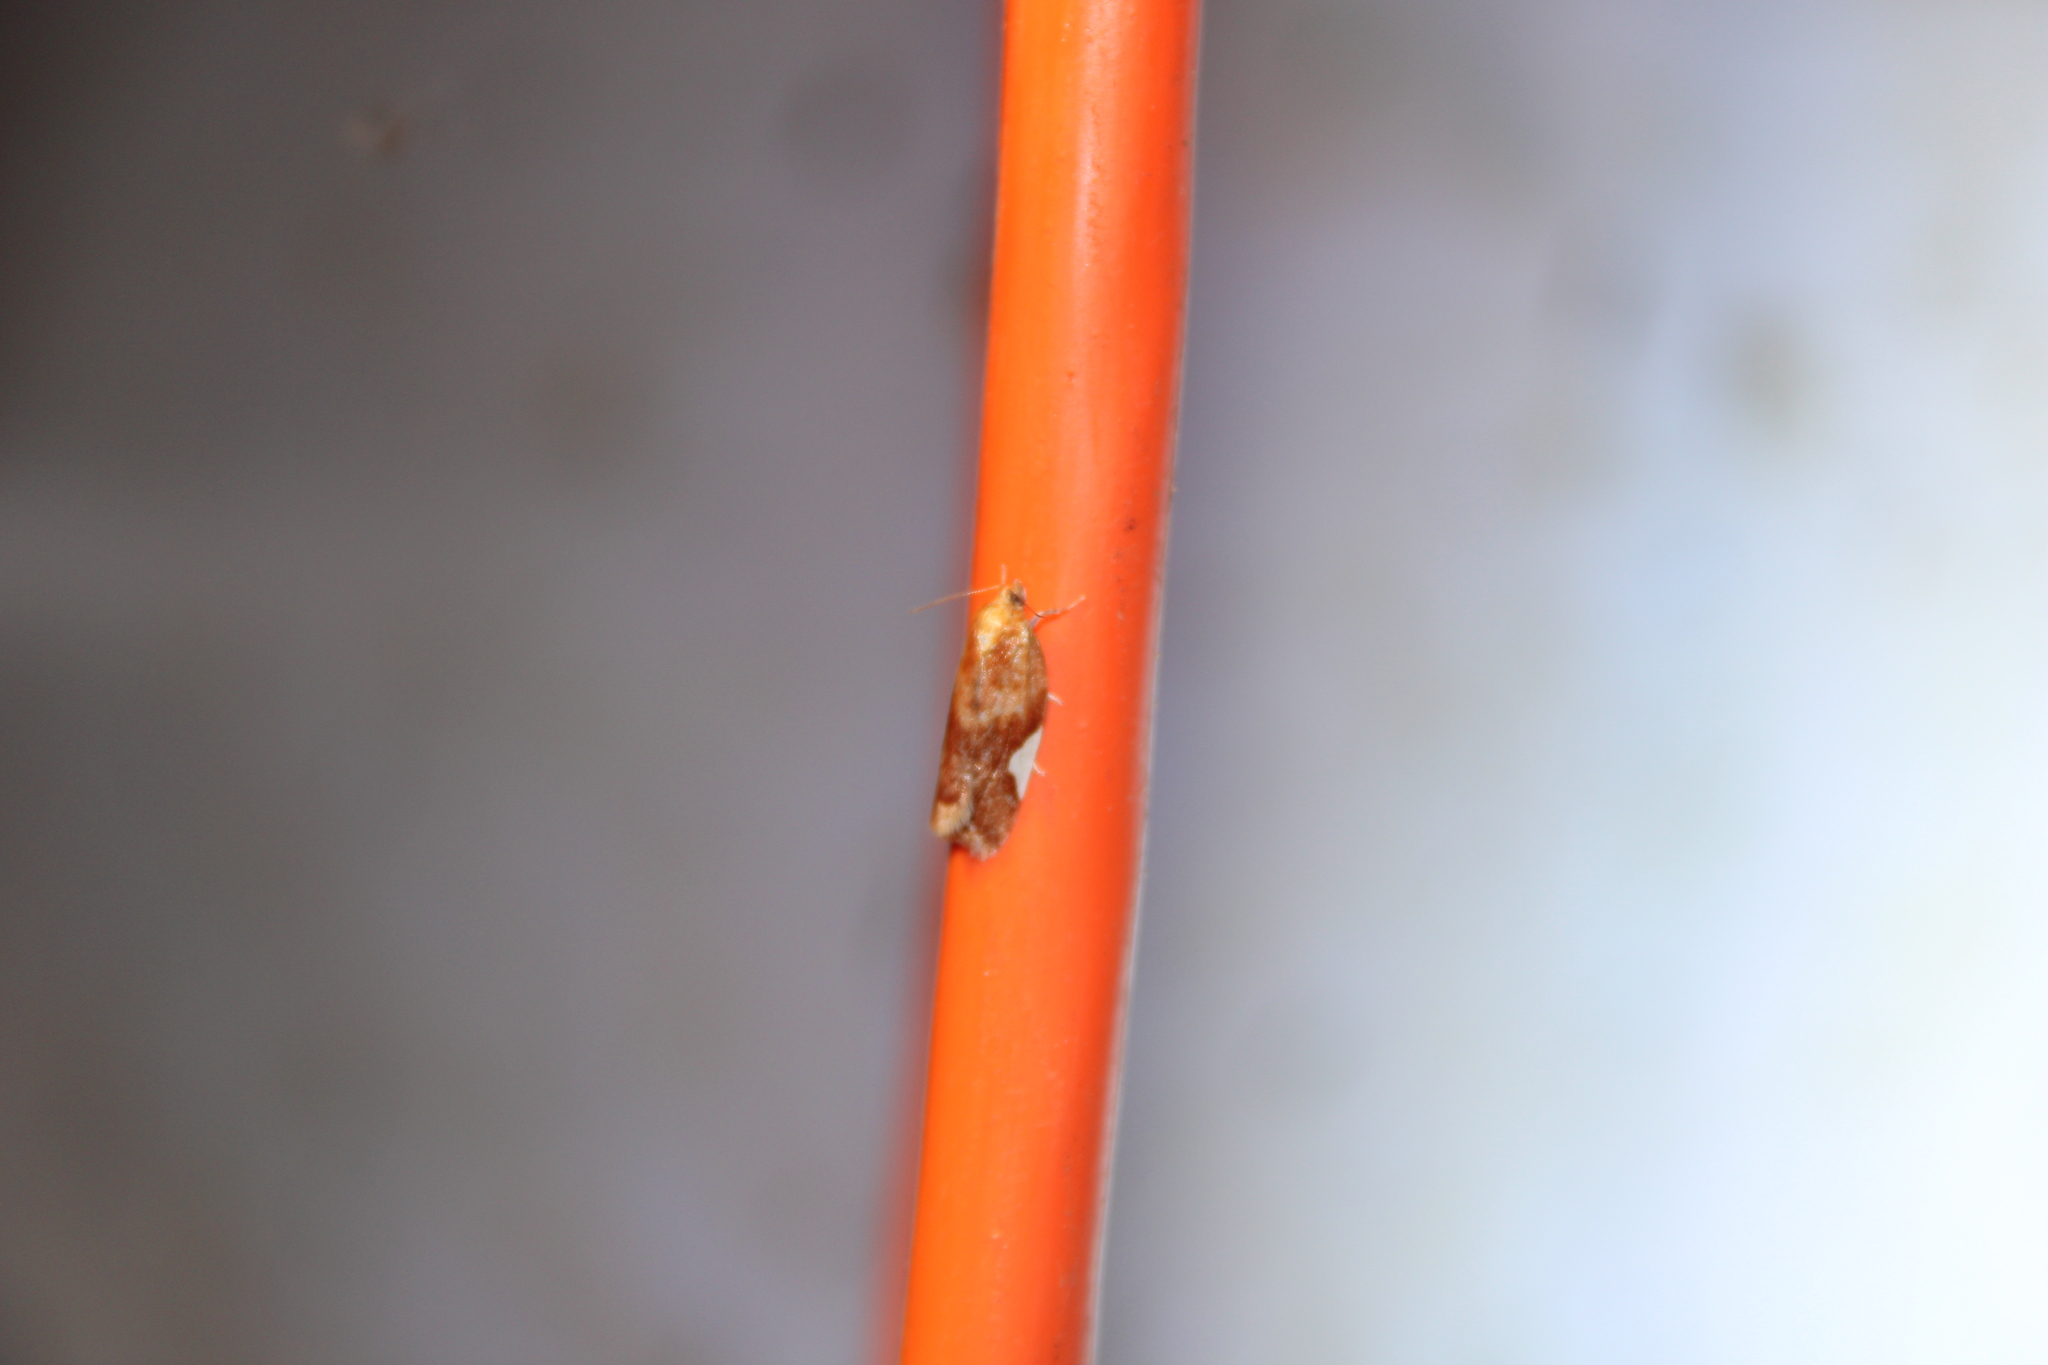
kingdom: Animalia
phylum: Arthropoda
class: Insecta
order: Lepidoptera
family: Tortricidae
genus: Clepsis
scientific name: Clepsis persicana
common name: White triangle tortrix
